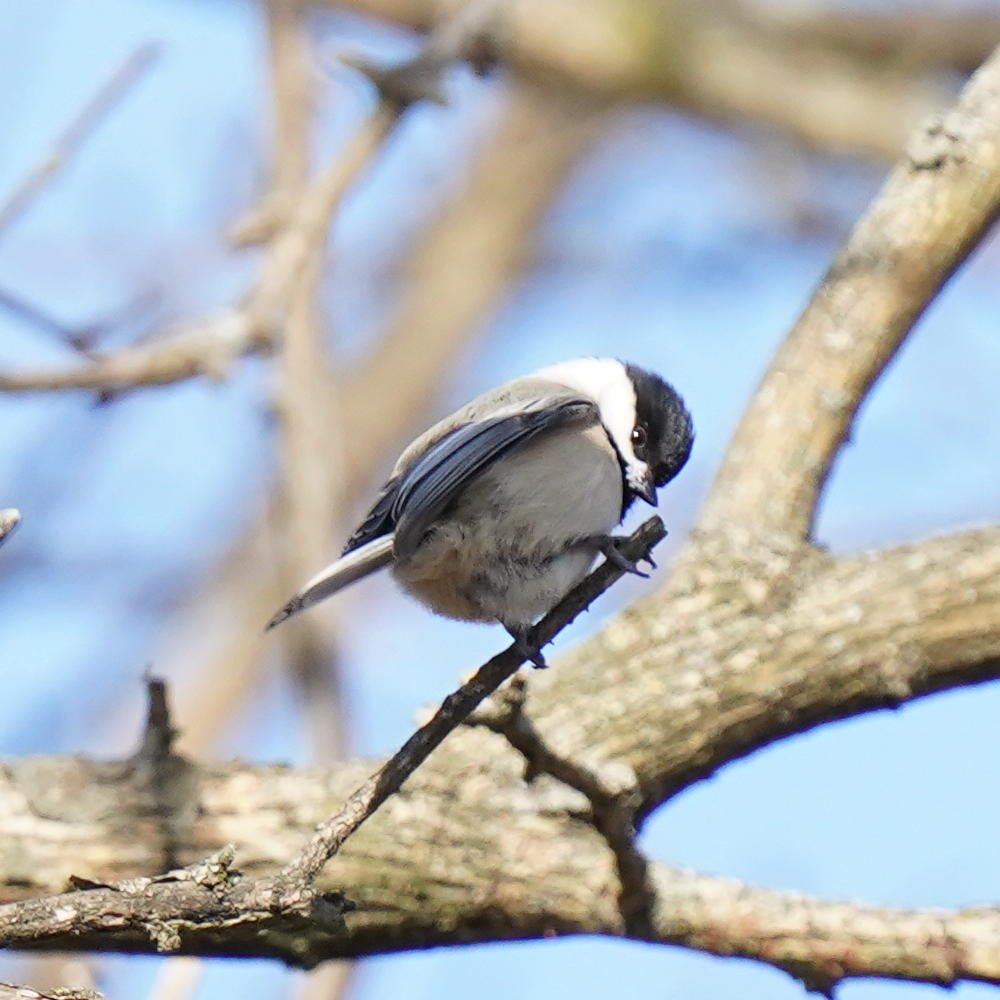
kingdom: Animalia
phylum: Chordata
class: Aves
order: Passeriformes
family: Paridae
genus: Poecile
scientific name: Poecile atricapillus
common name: Black-capped chickadee
